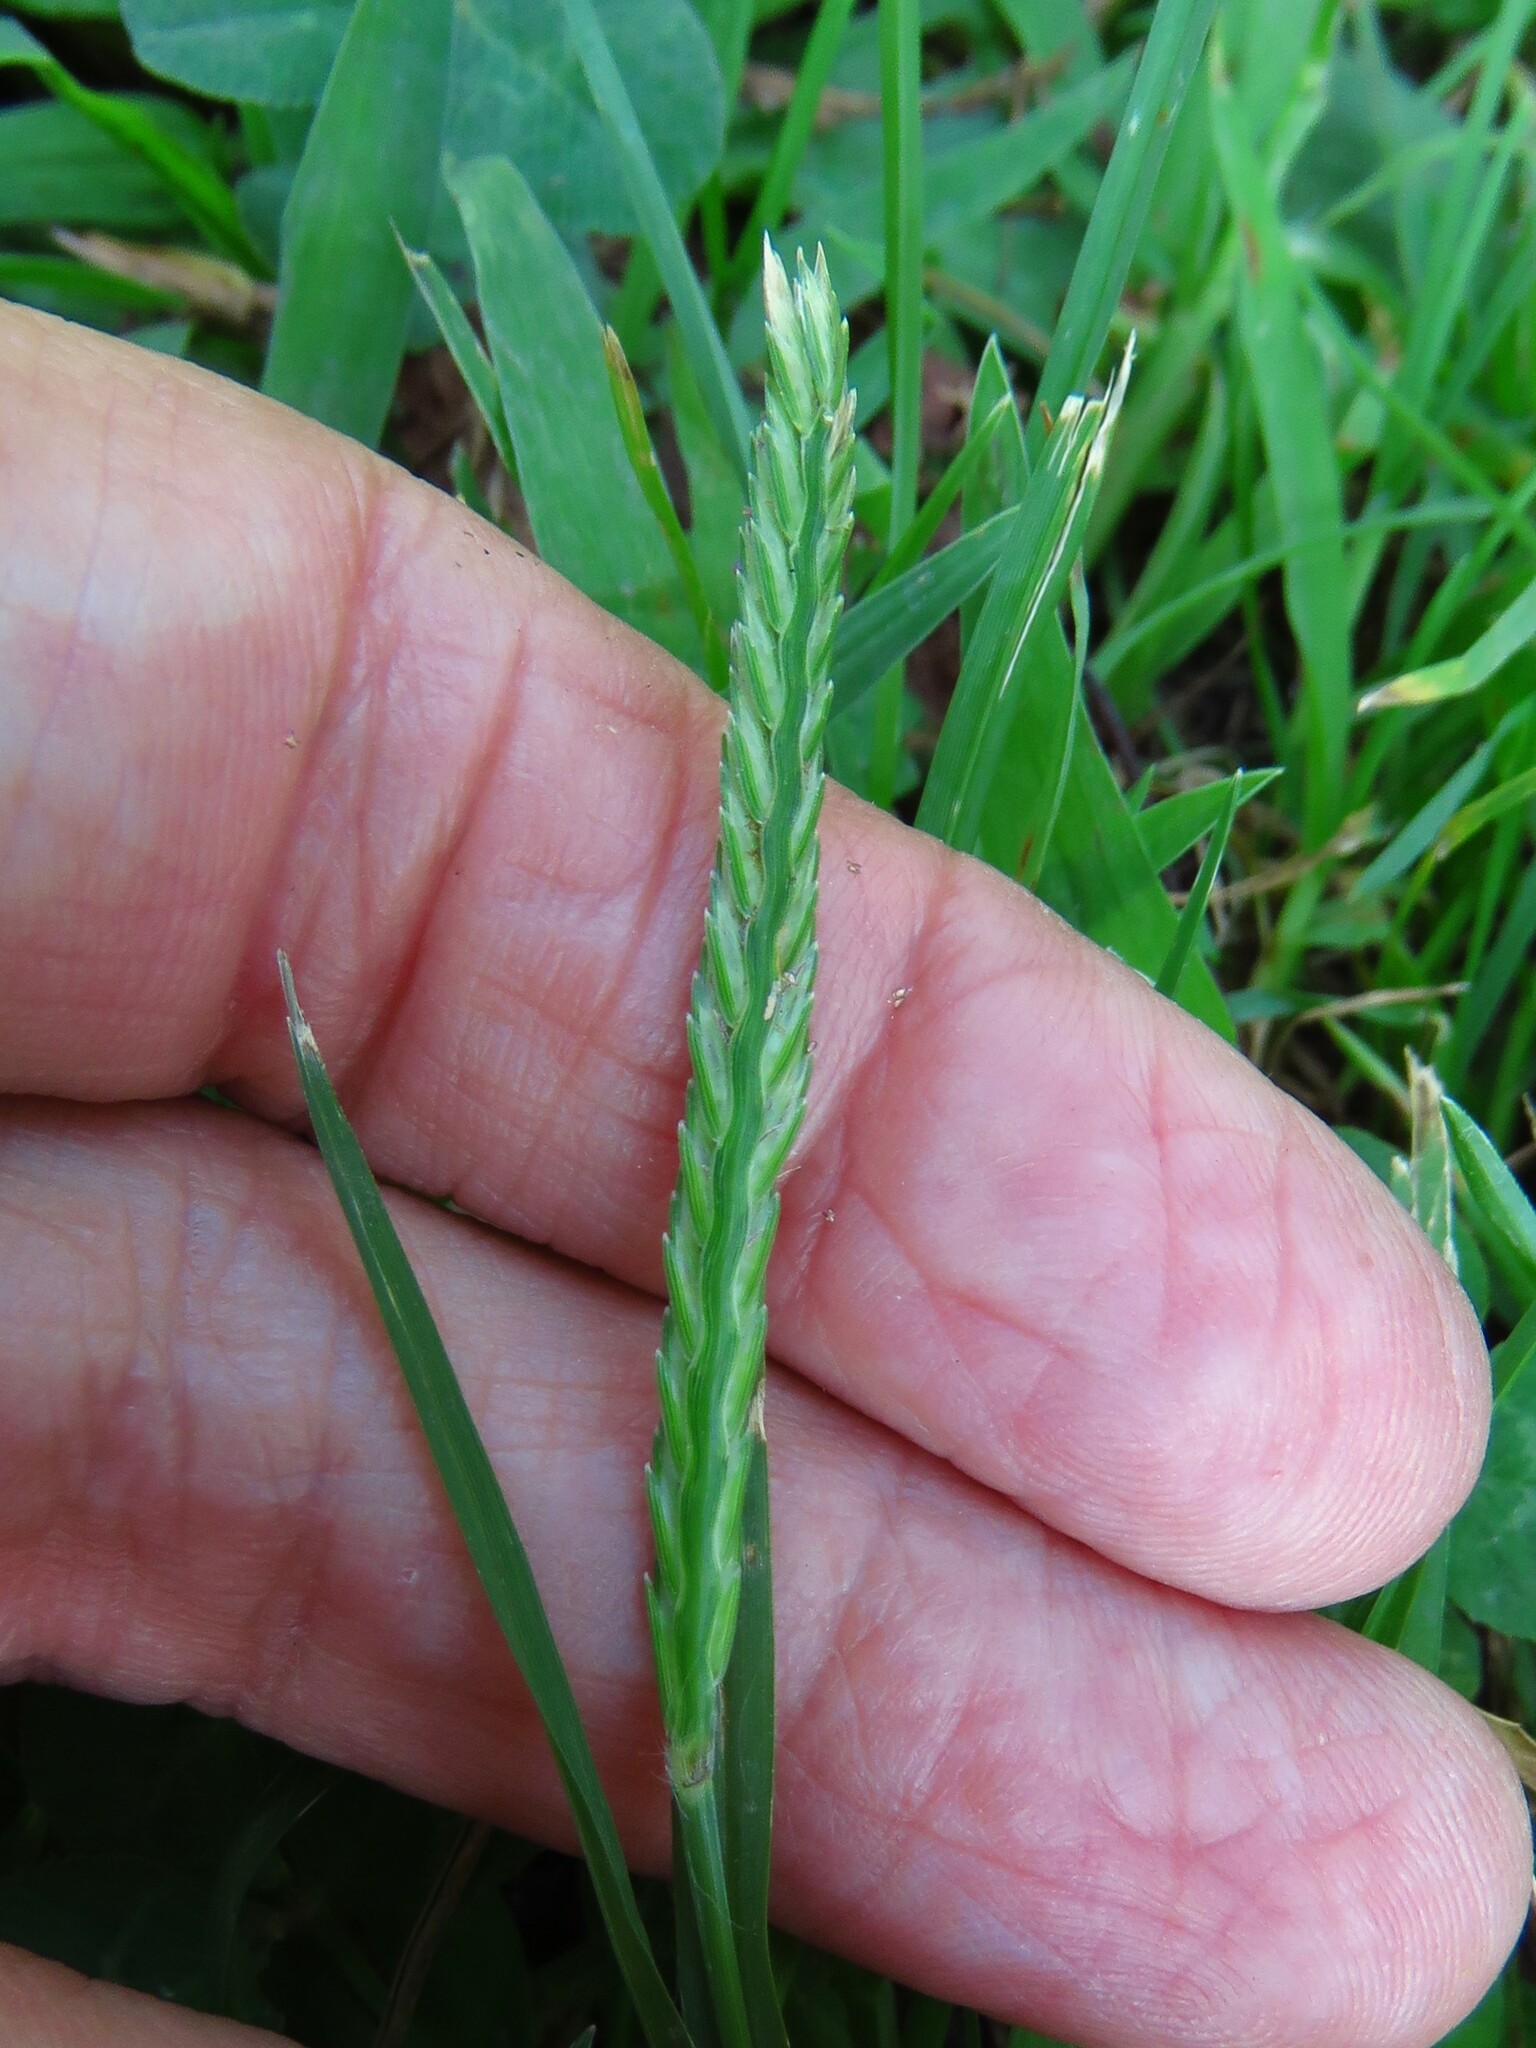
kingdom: Plantae
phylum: Tracheophyta
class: Liliopsida
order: Poales
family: Poaceae
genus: Eleusine
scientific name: Eleusine indica
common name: Yard-grass
